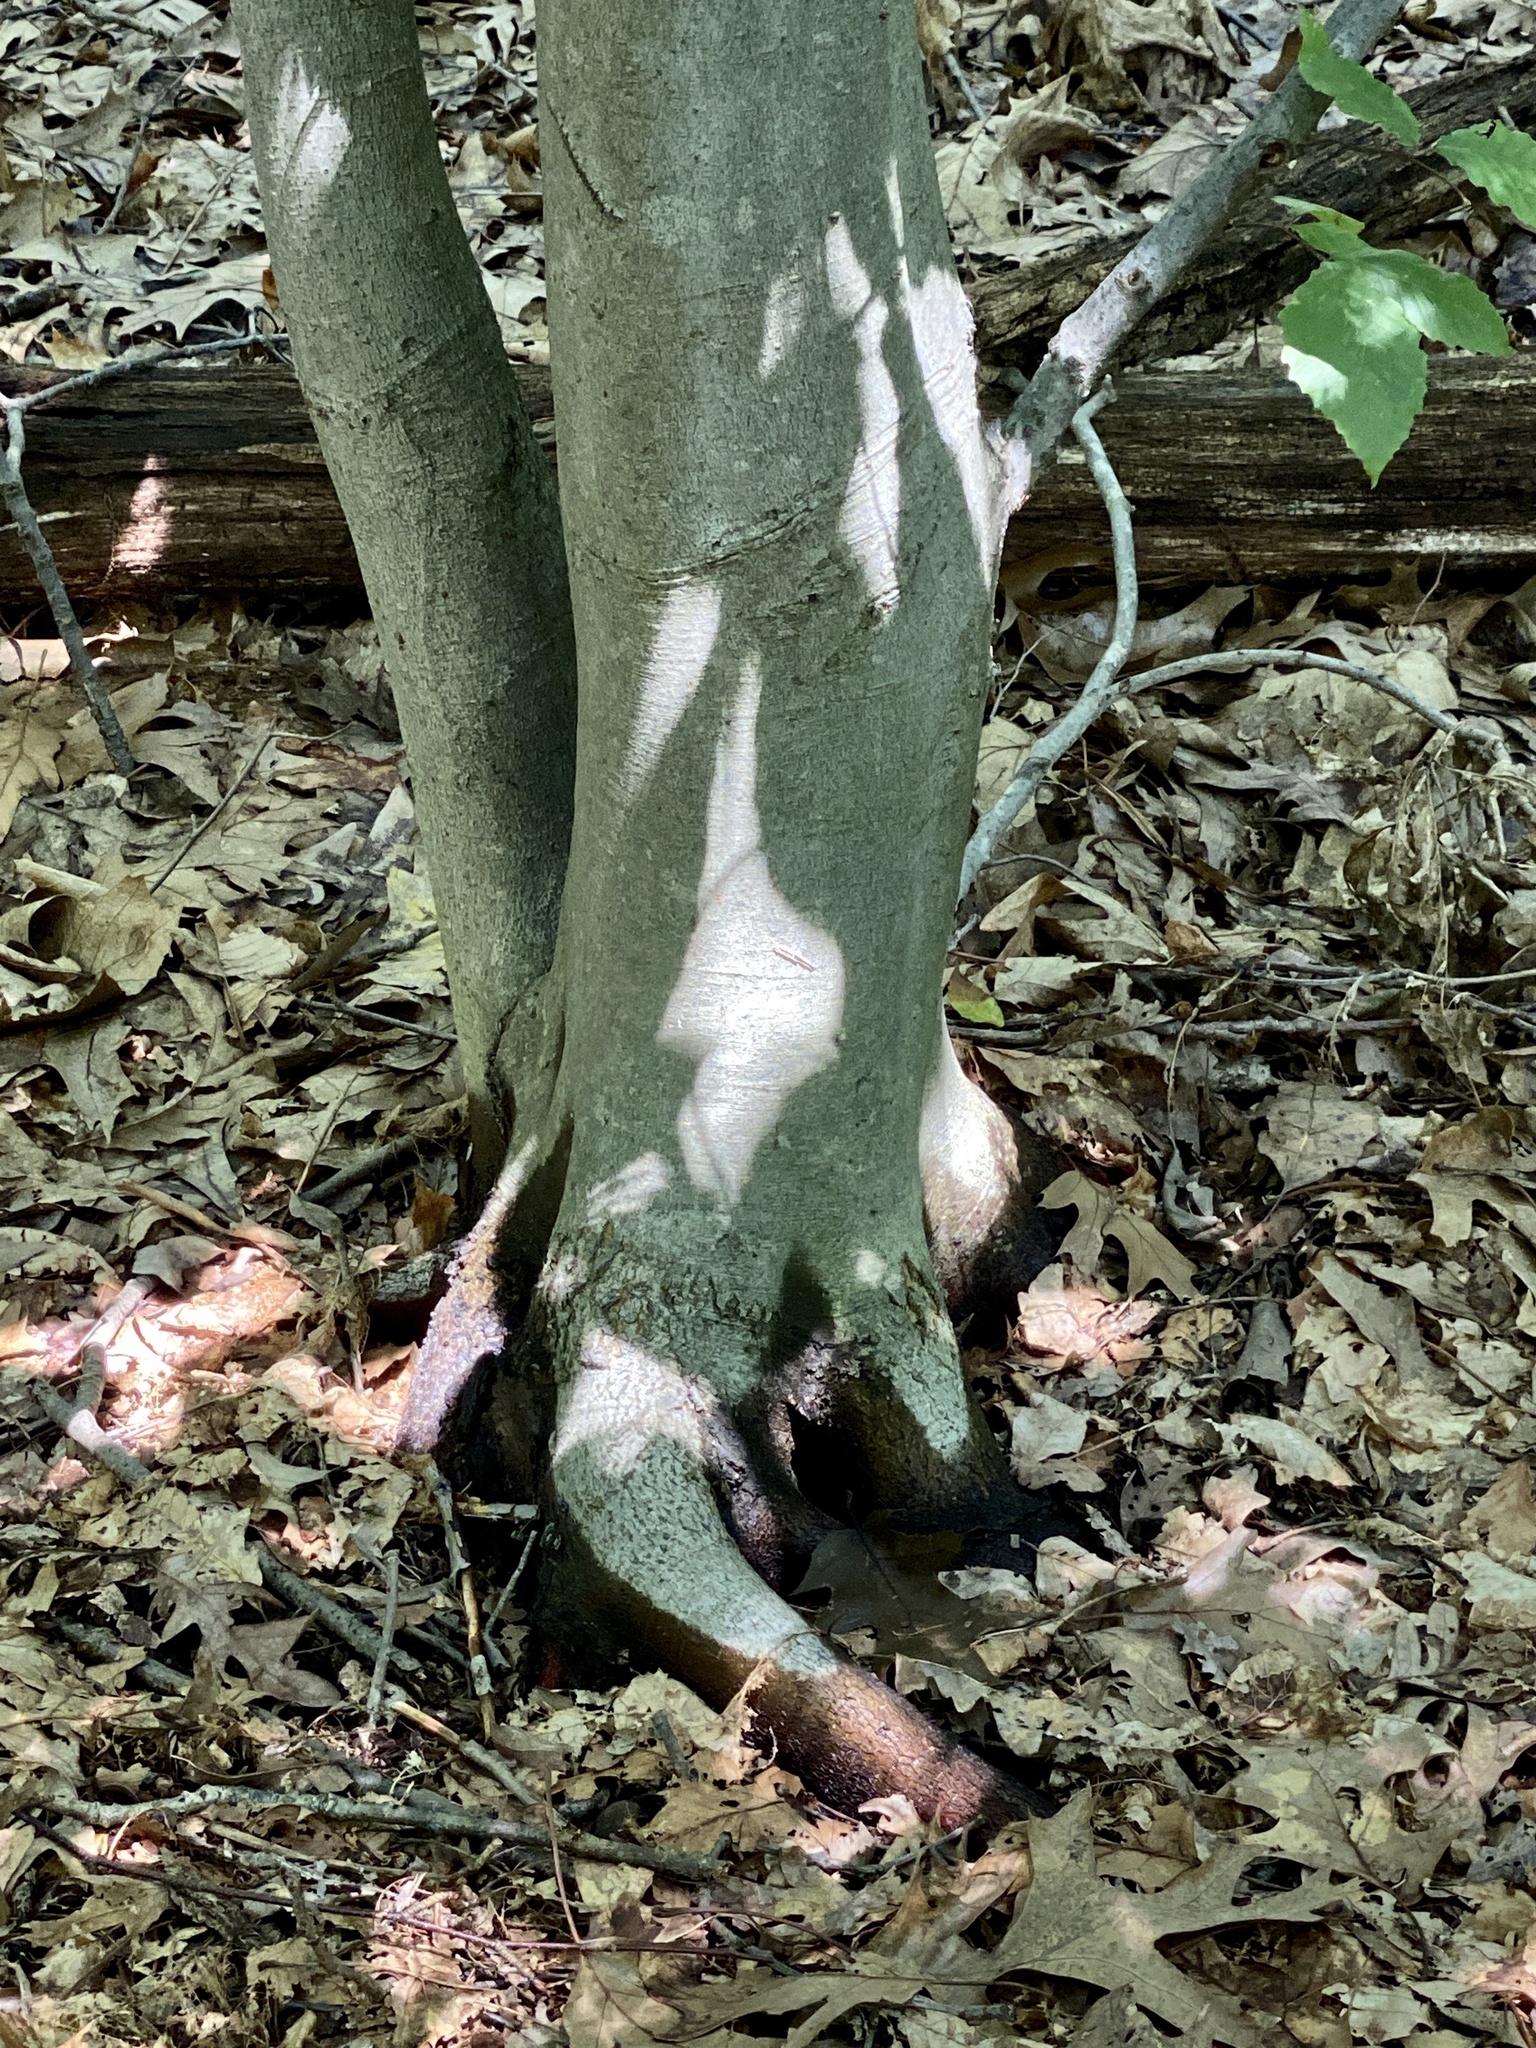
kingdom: Plantae
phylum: Tracheophyta
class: Magnoliopsida
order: Fagales
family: Fagaceae
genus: Fagus
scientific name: Fagus grandifolia
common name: American beech
